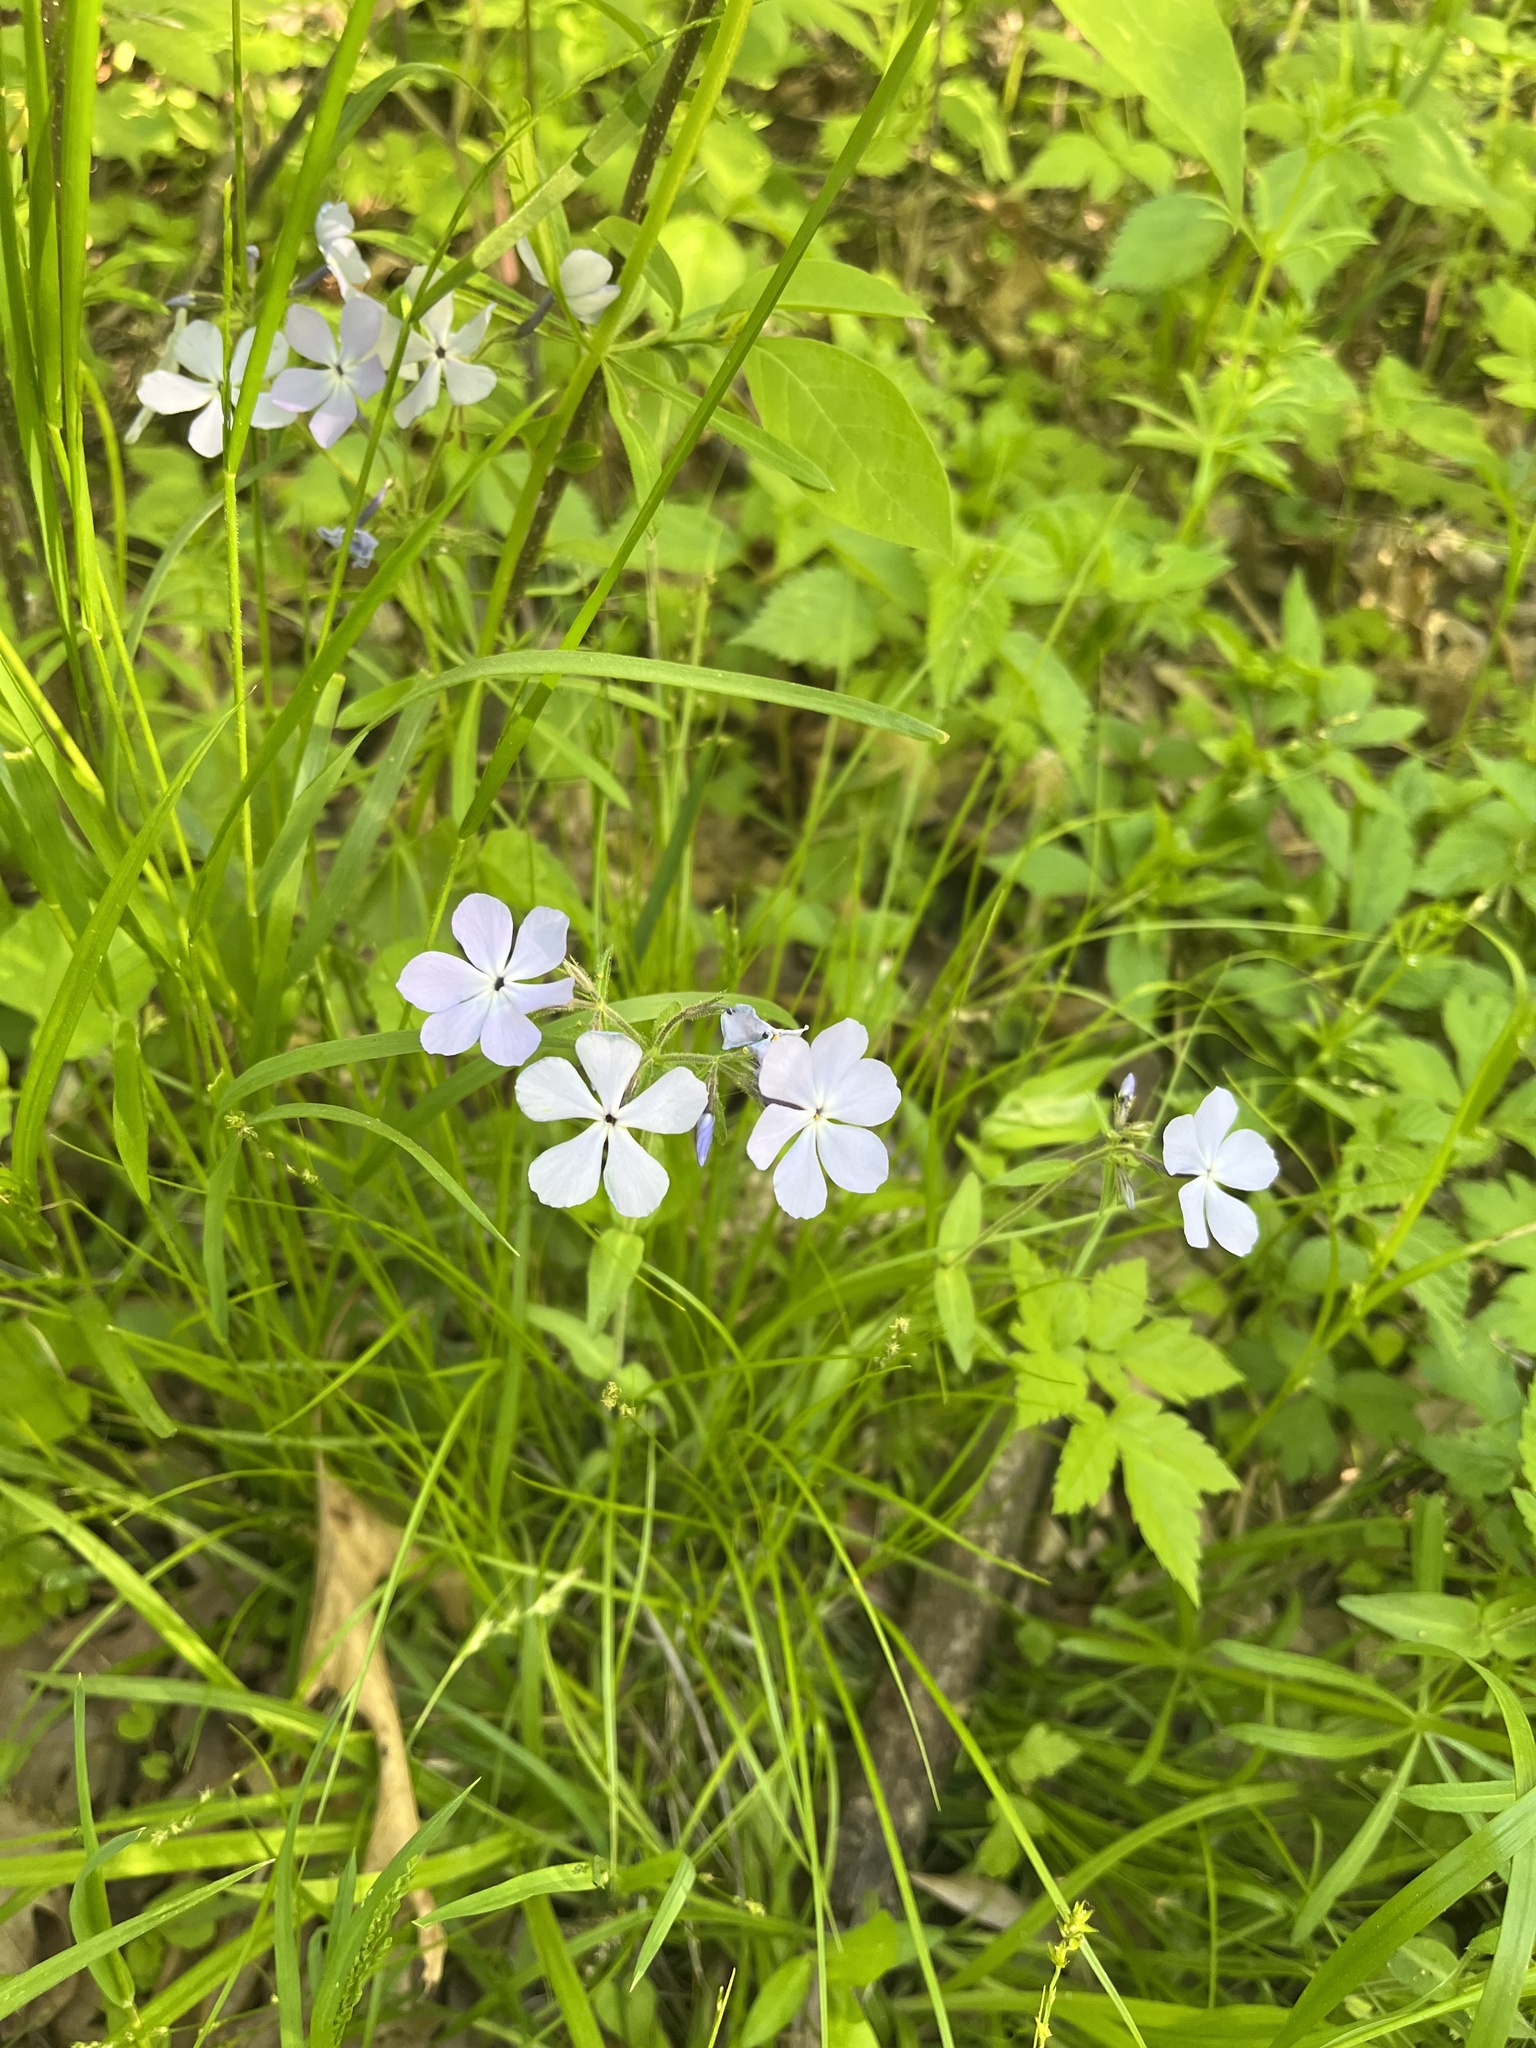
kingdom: Plantae
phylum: Tracheophyta
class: Magnoliopsida
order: Ericales
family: Polemoniaceae
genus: Phlox
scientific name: Phlox divaricata
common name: Blue phlox
